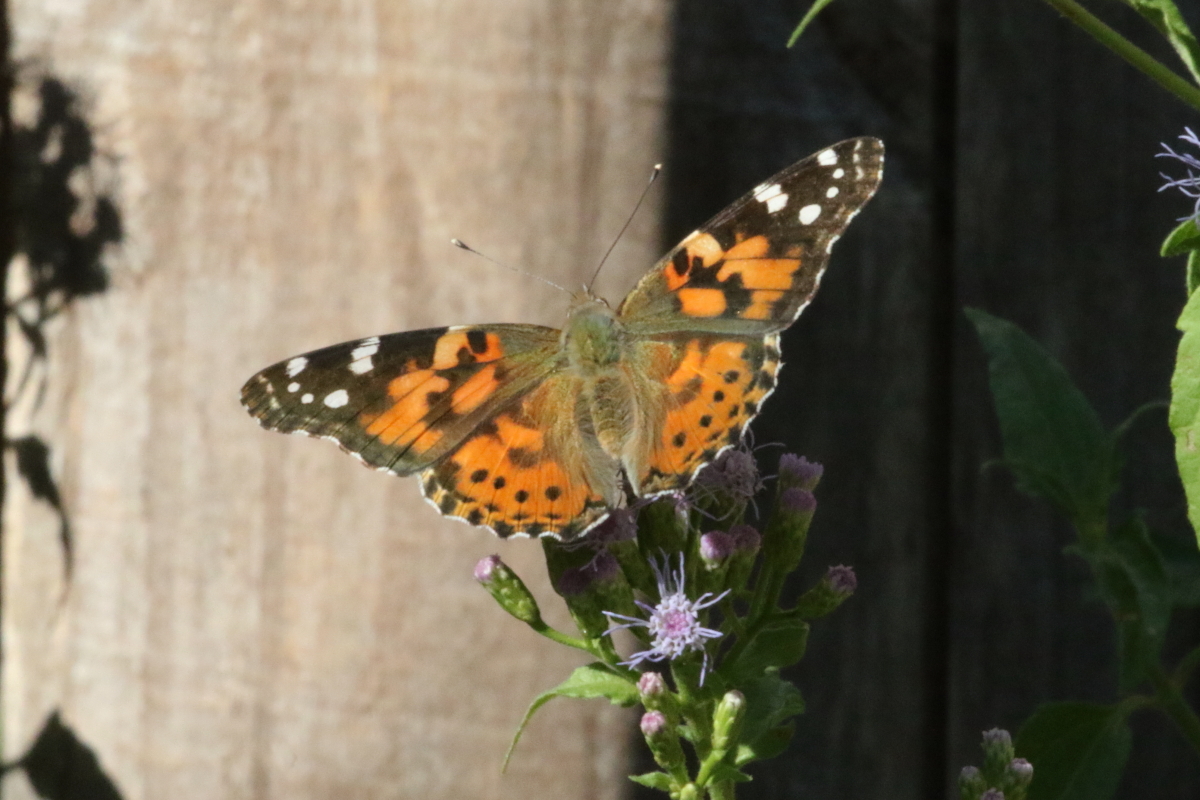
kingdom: Animalia
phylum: Arthropoda
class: Insecta
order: Lepidoptera
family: Nymphalidae
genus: Vanessa
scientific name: Vanessa cardui
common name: Painted lady
